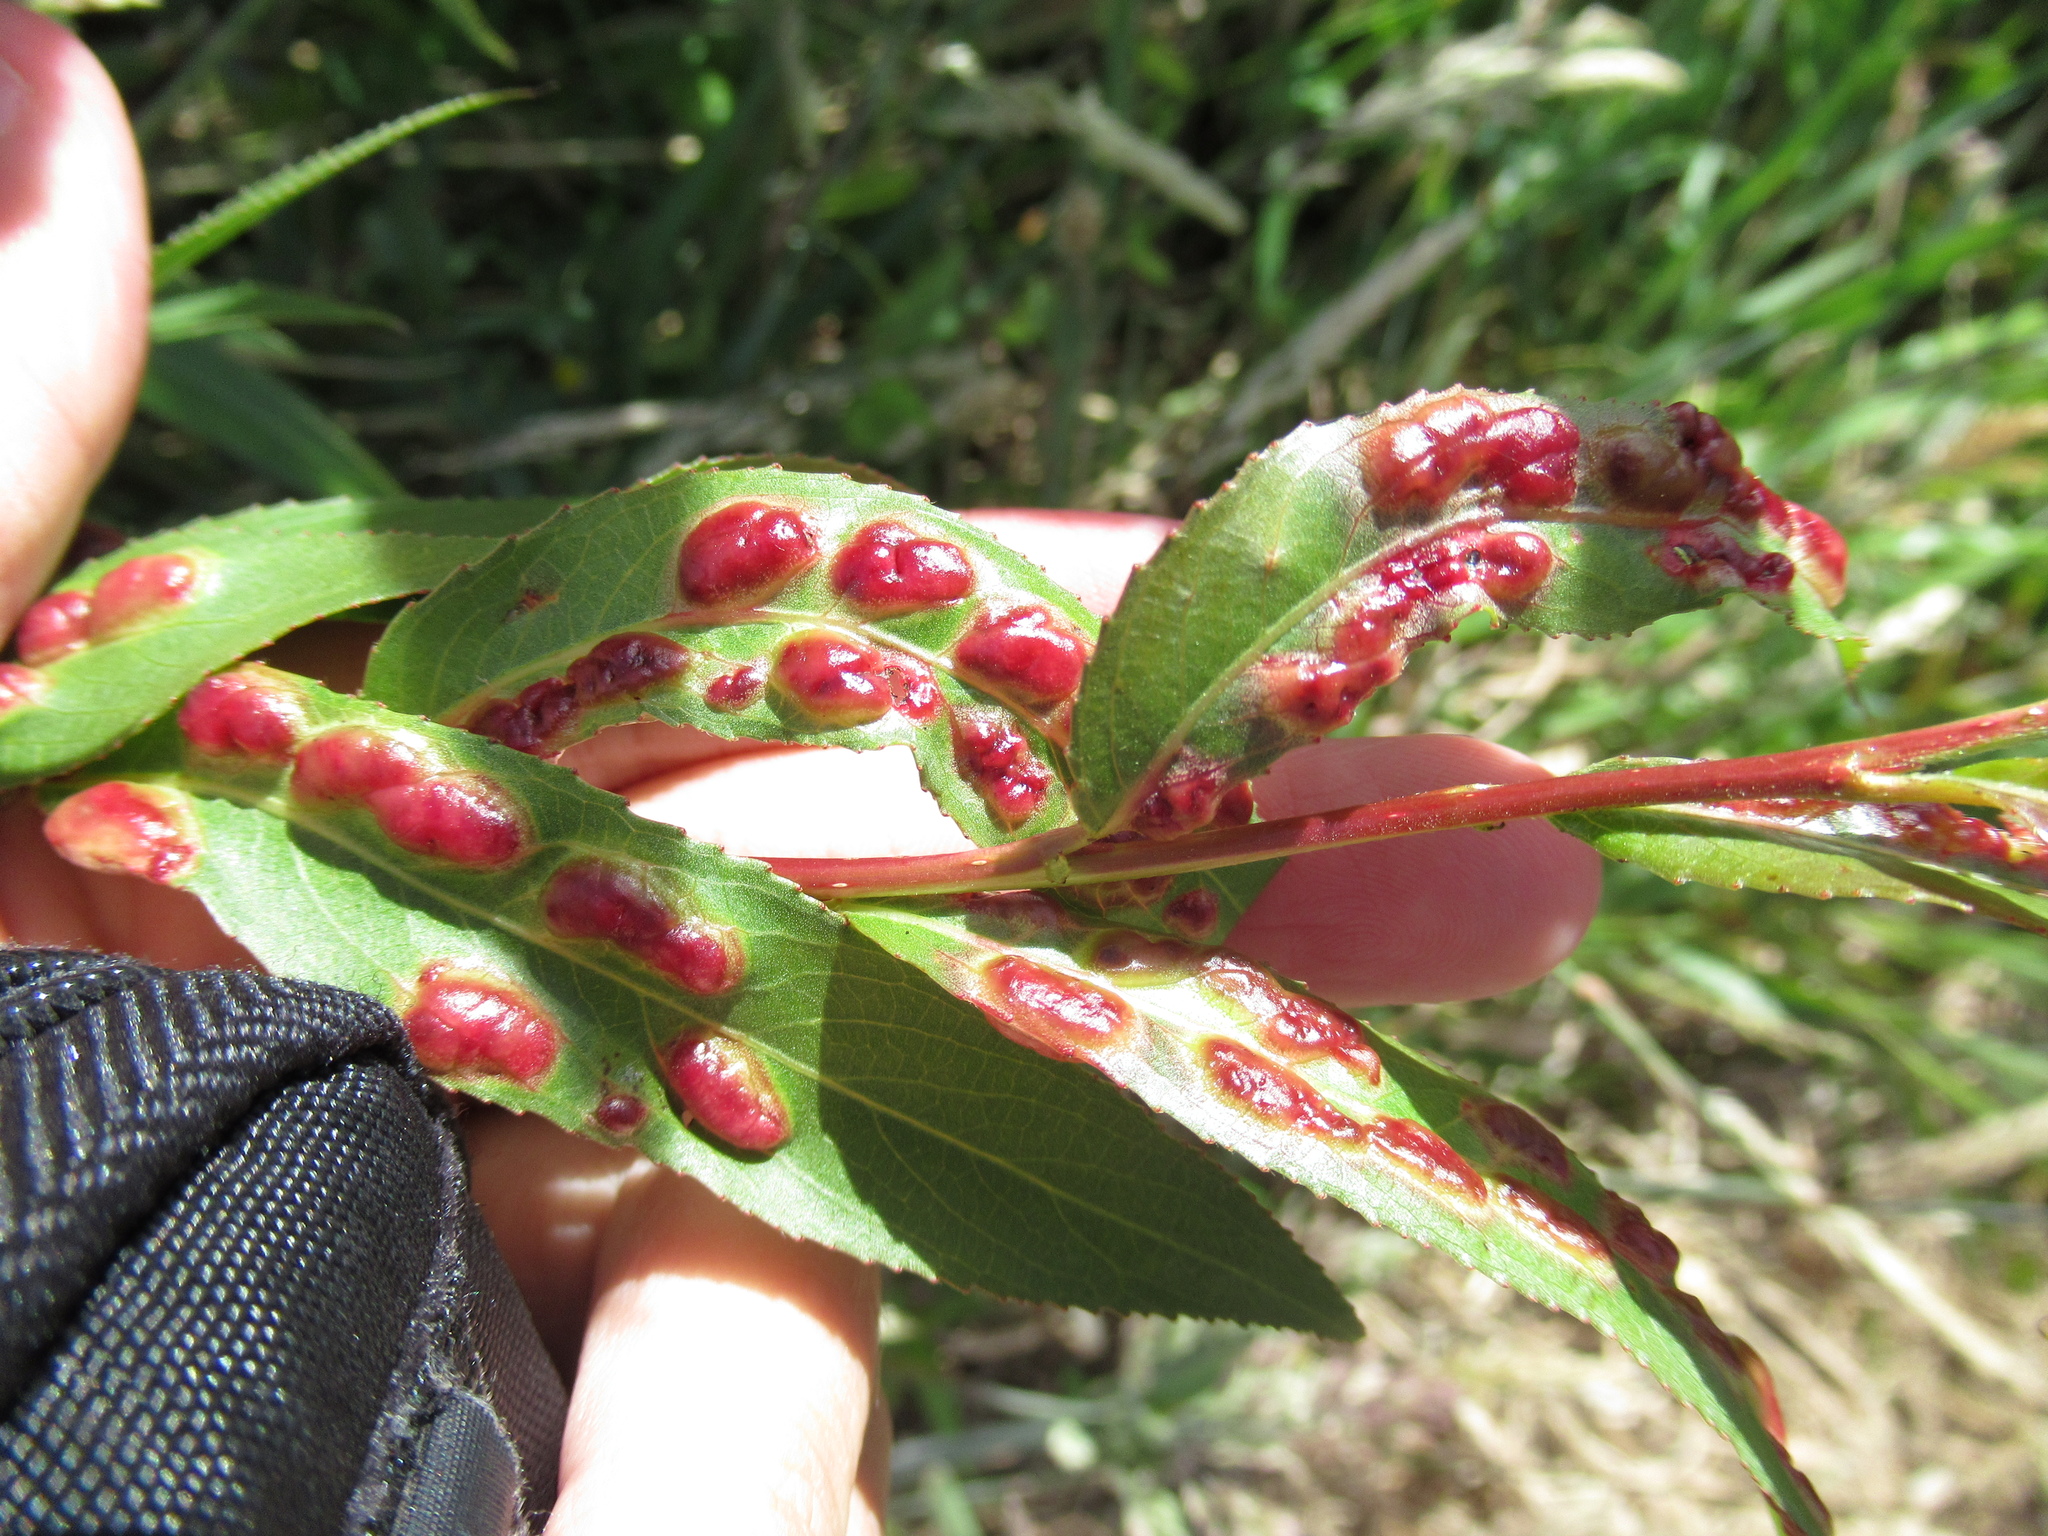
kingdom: Animalia
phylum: Arthropoda
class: Insecta
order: Hymenoptera
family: Tenthredinidae
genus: Pontania
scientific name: Pontania proxima
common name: Common sawfly
